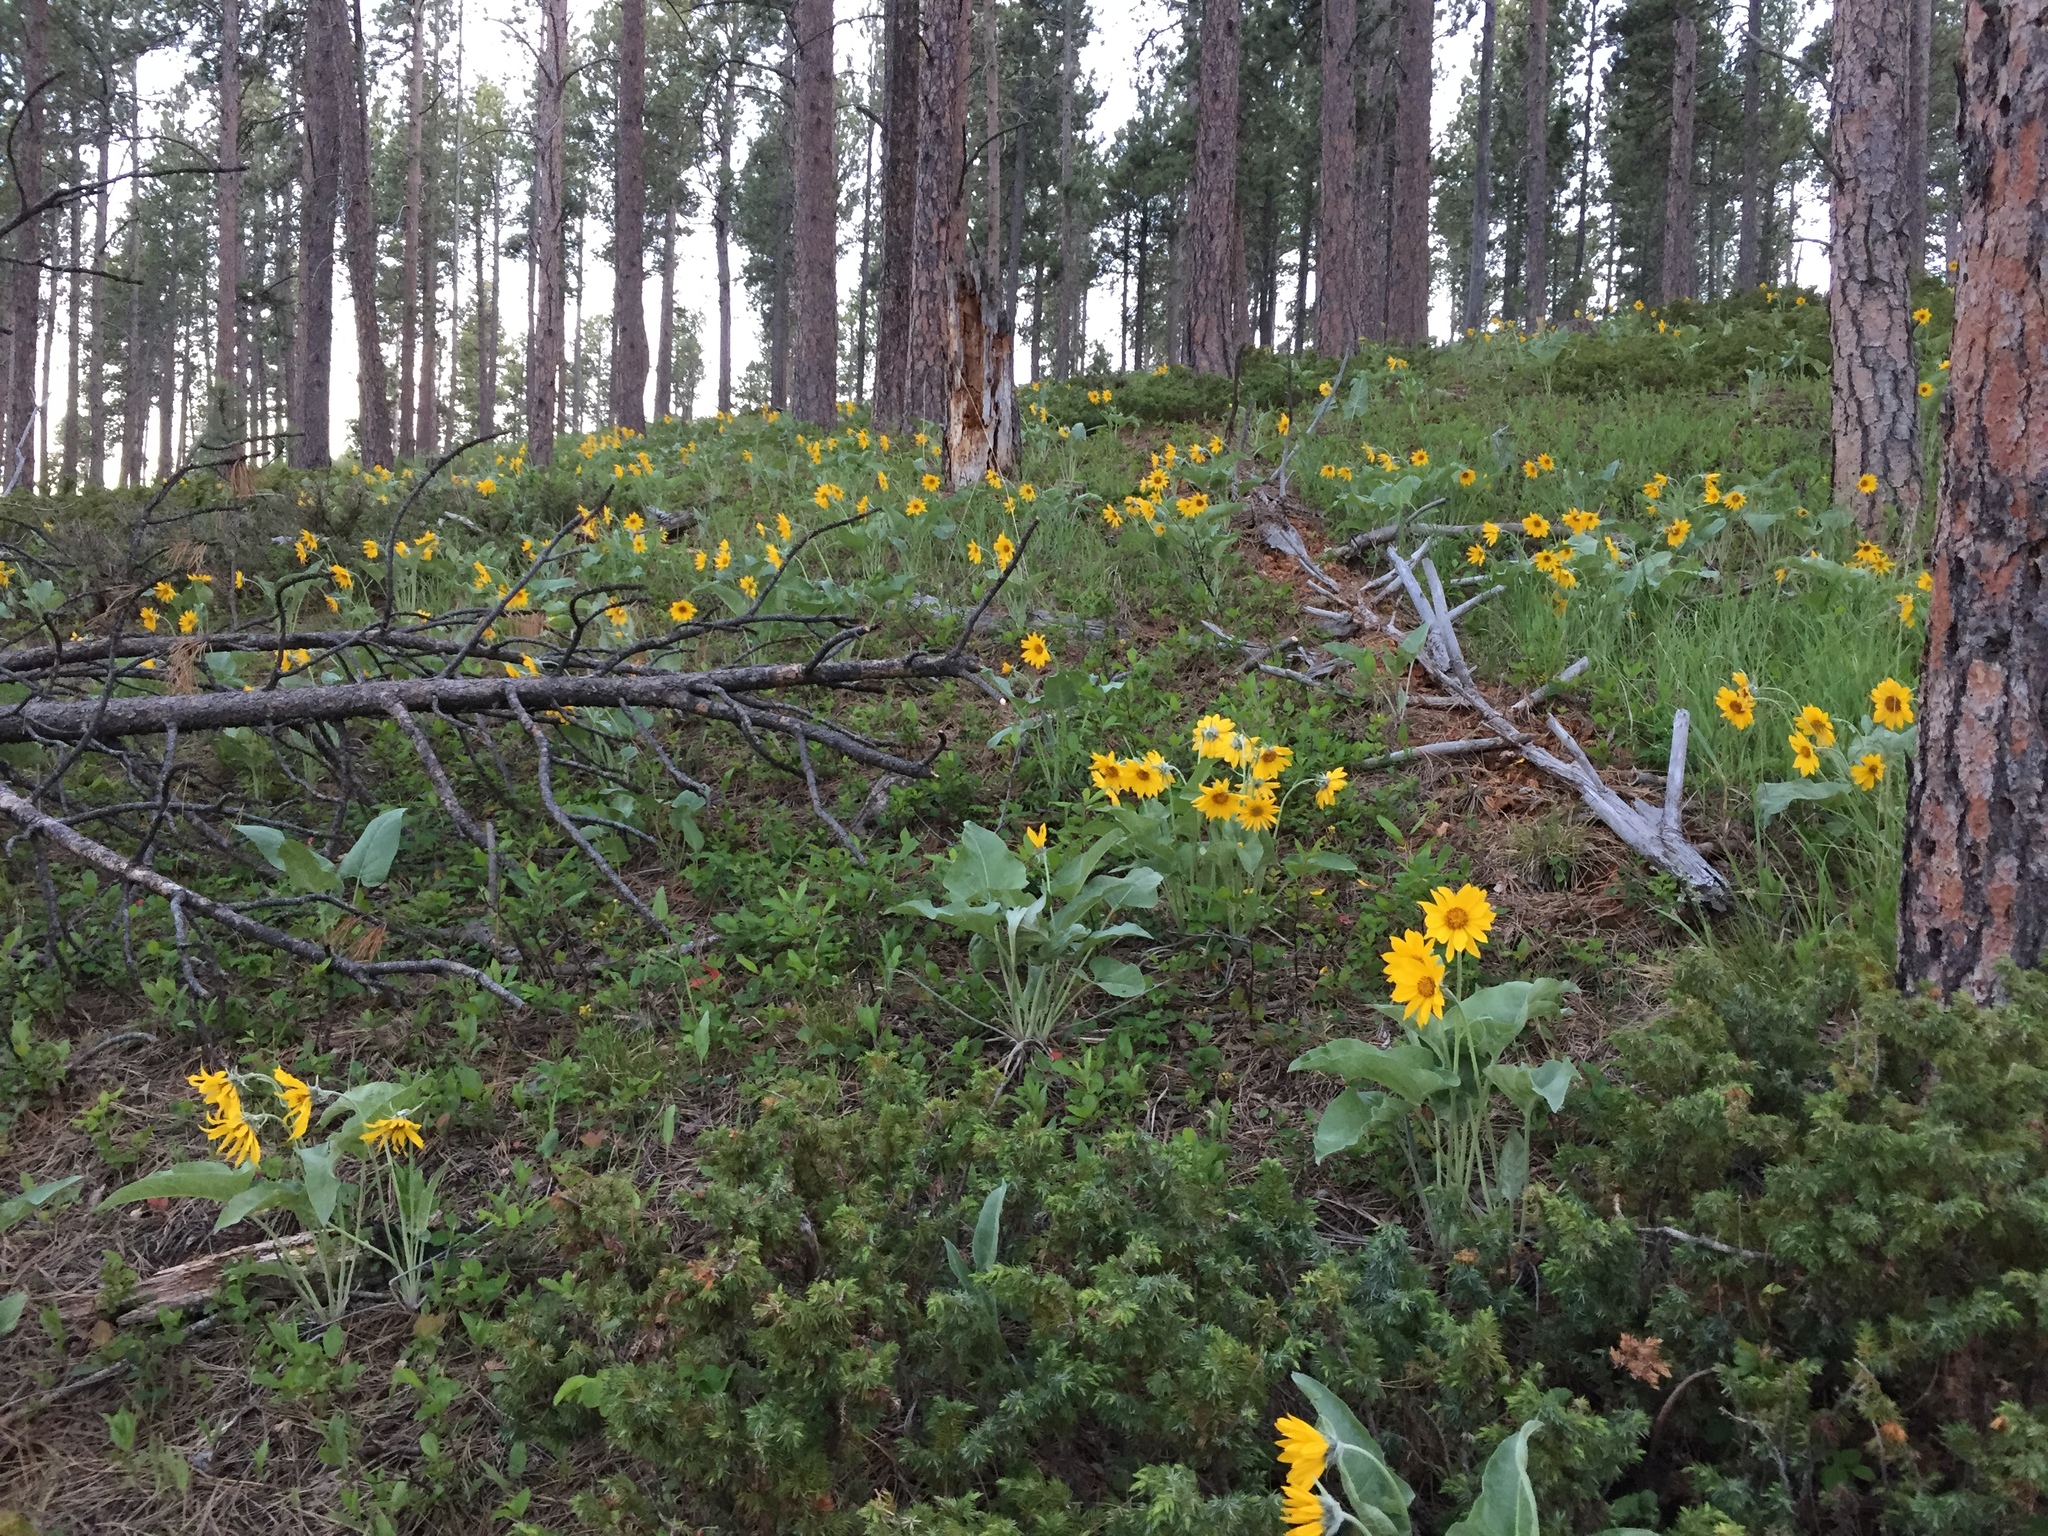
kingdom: Plantae
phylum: Tracheophyta
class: Magnoliopsida
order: Asterales
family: Asteraceae
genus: Wyethia
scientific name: Wyethia sagittata
